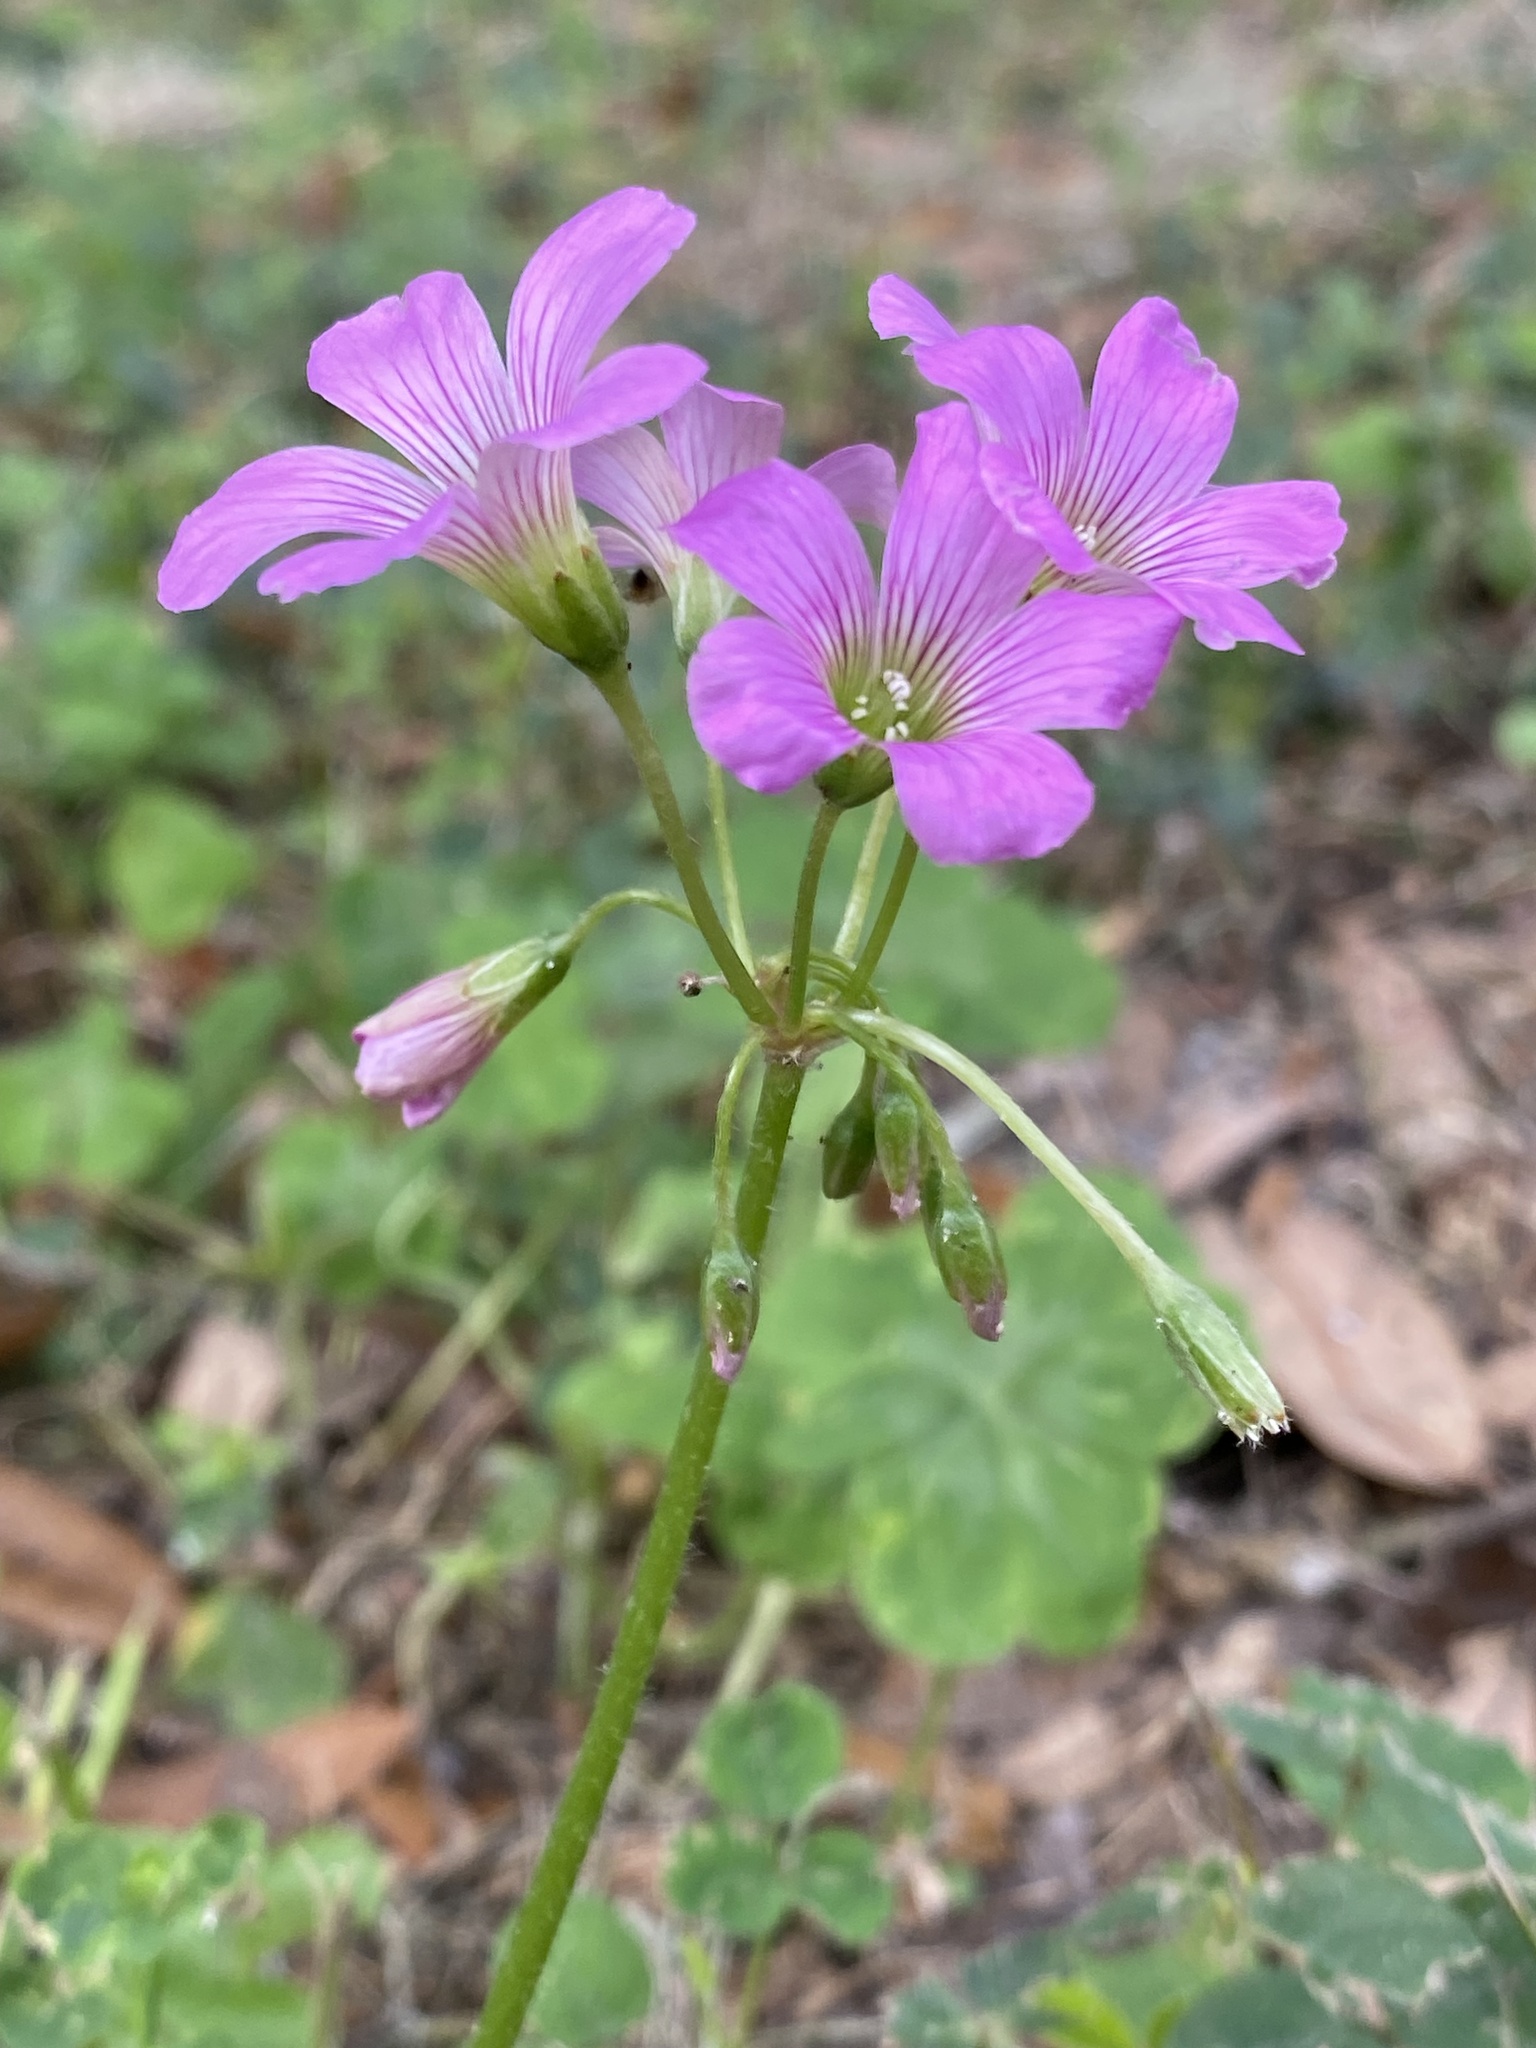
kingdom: Plantae
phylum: Tracheophyta
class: Magnoliopsida
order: Oxalidales
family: Oxalidaceae
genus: Oxalis
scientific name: Oxalis debilis
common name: Large-flowered pink-sorrel
